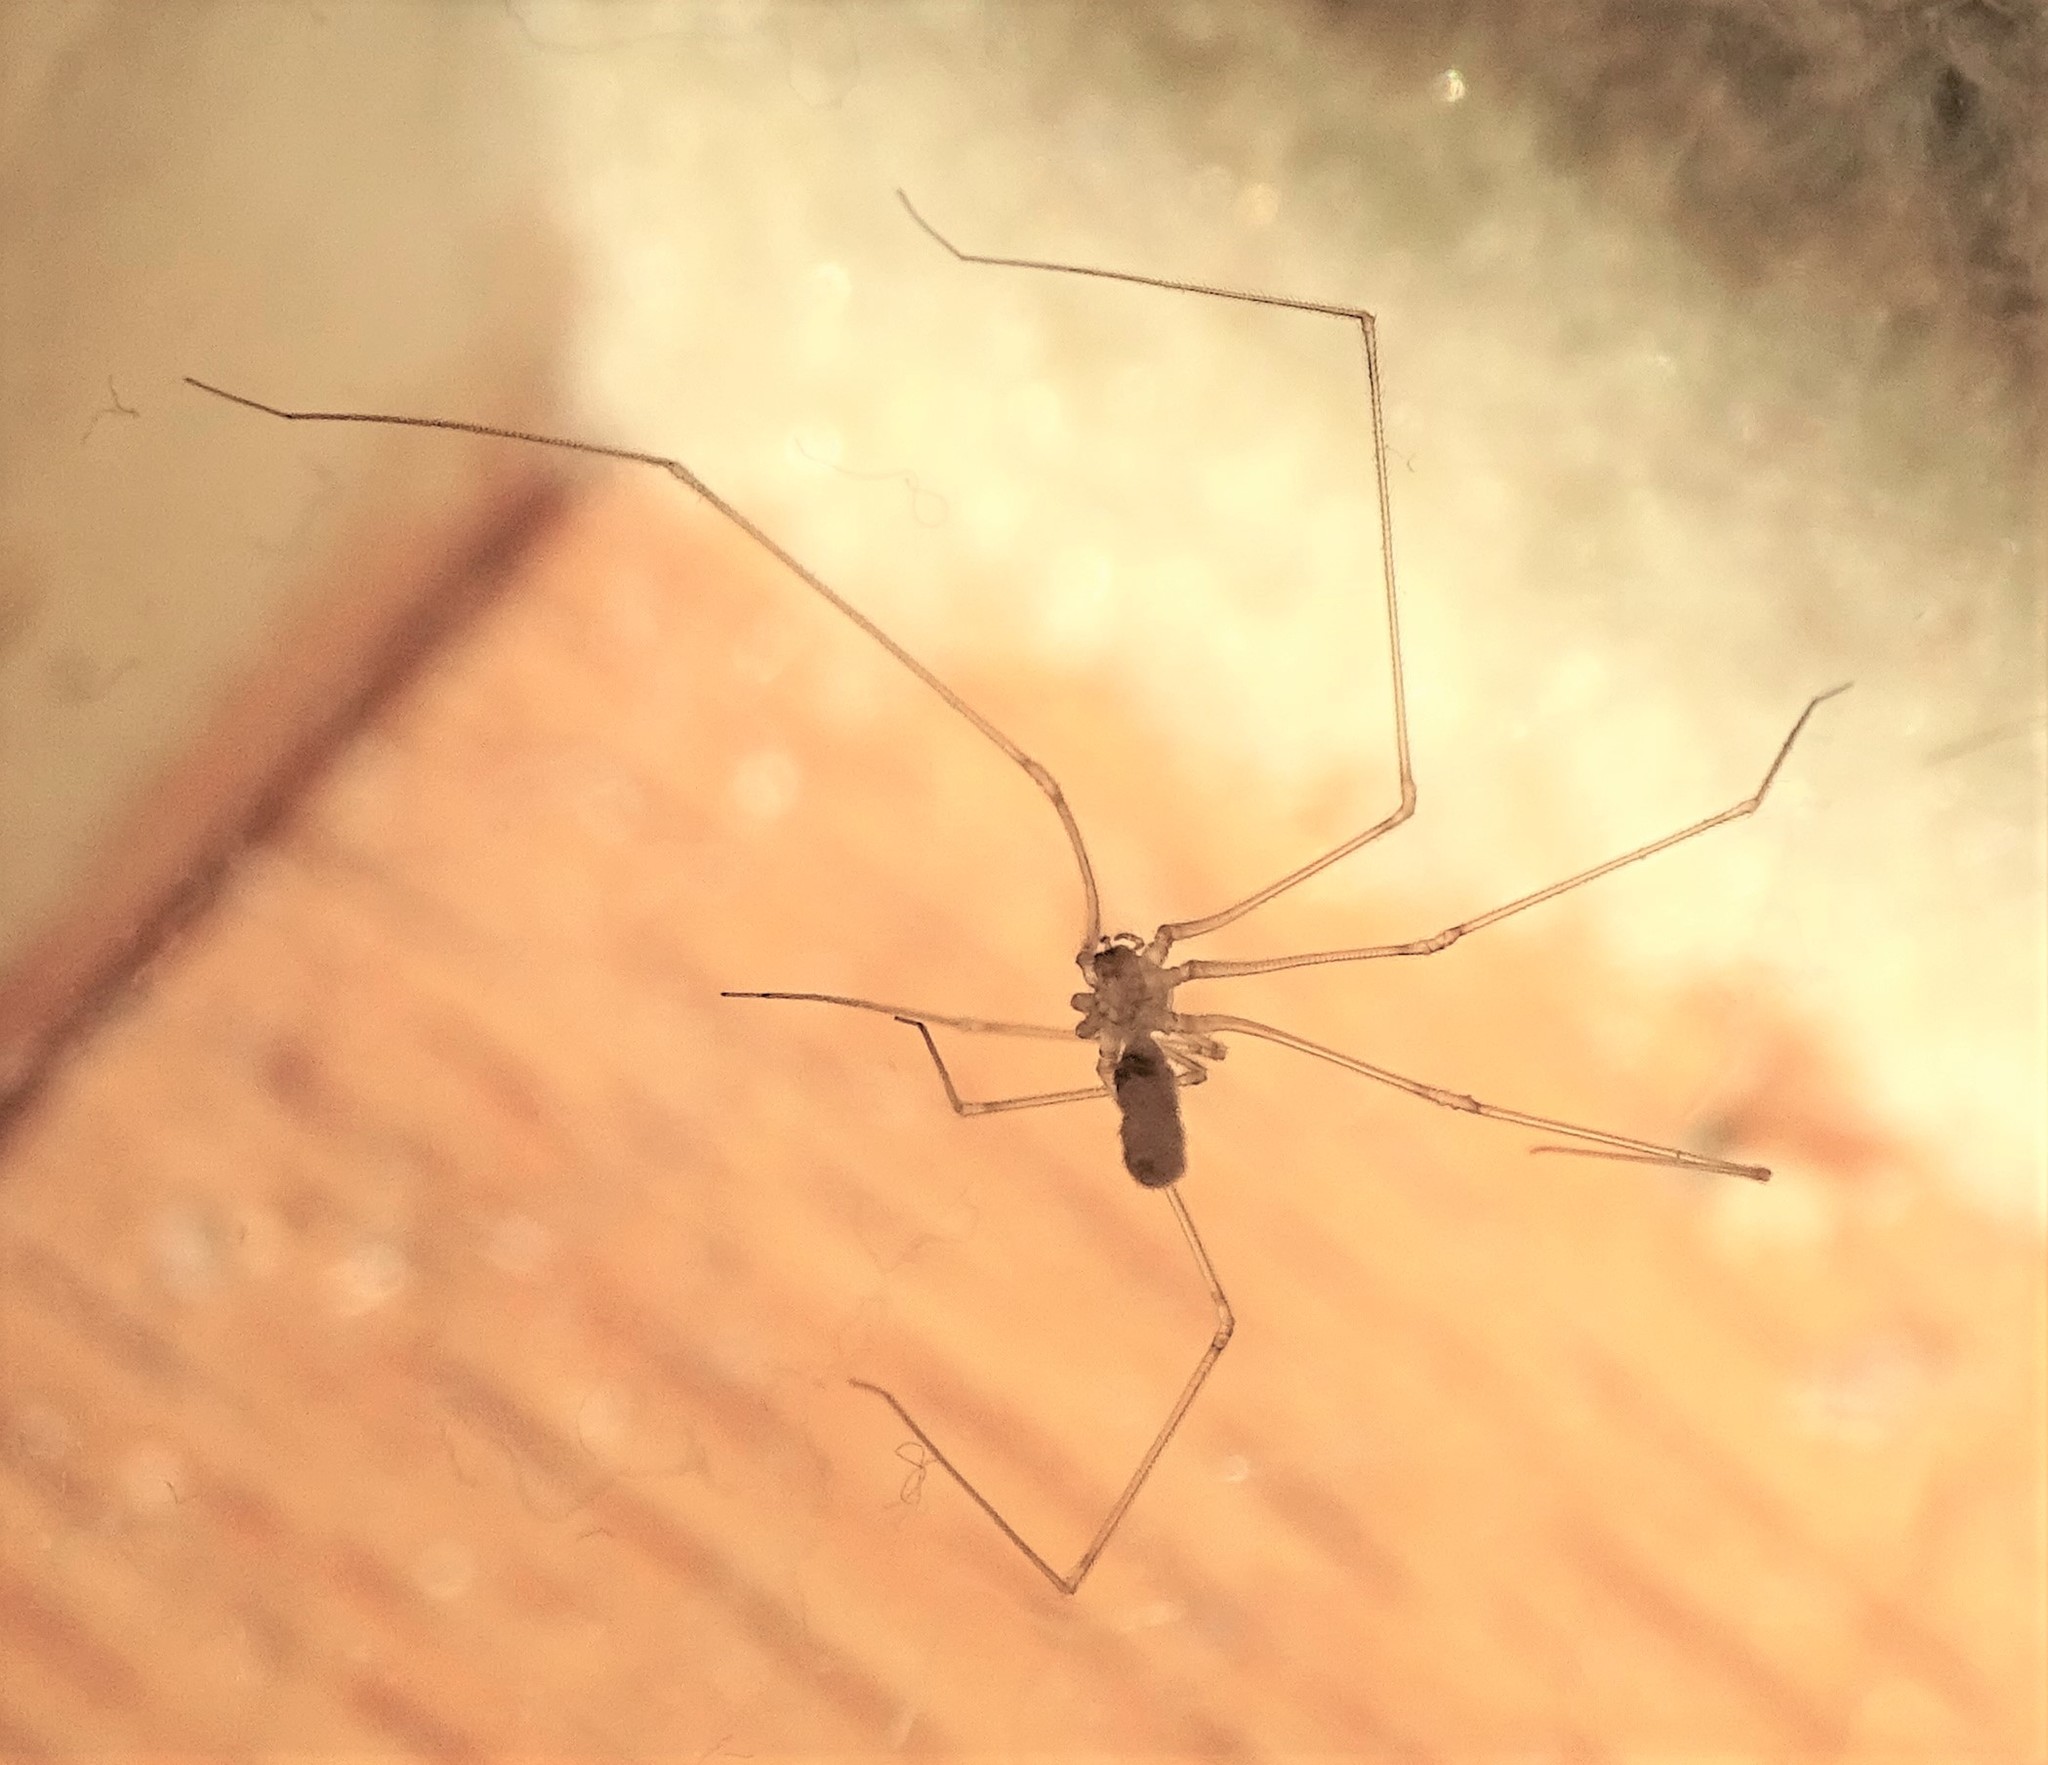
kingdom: Animalia
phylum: Arthropoda
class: Arachnida
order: Araneae
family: Pholcidae
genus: Pholcus
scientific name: Pholcus phalangioides
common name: Longbodied cellar spider
